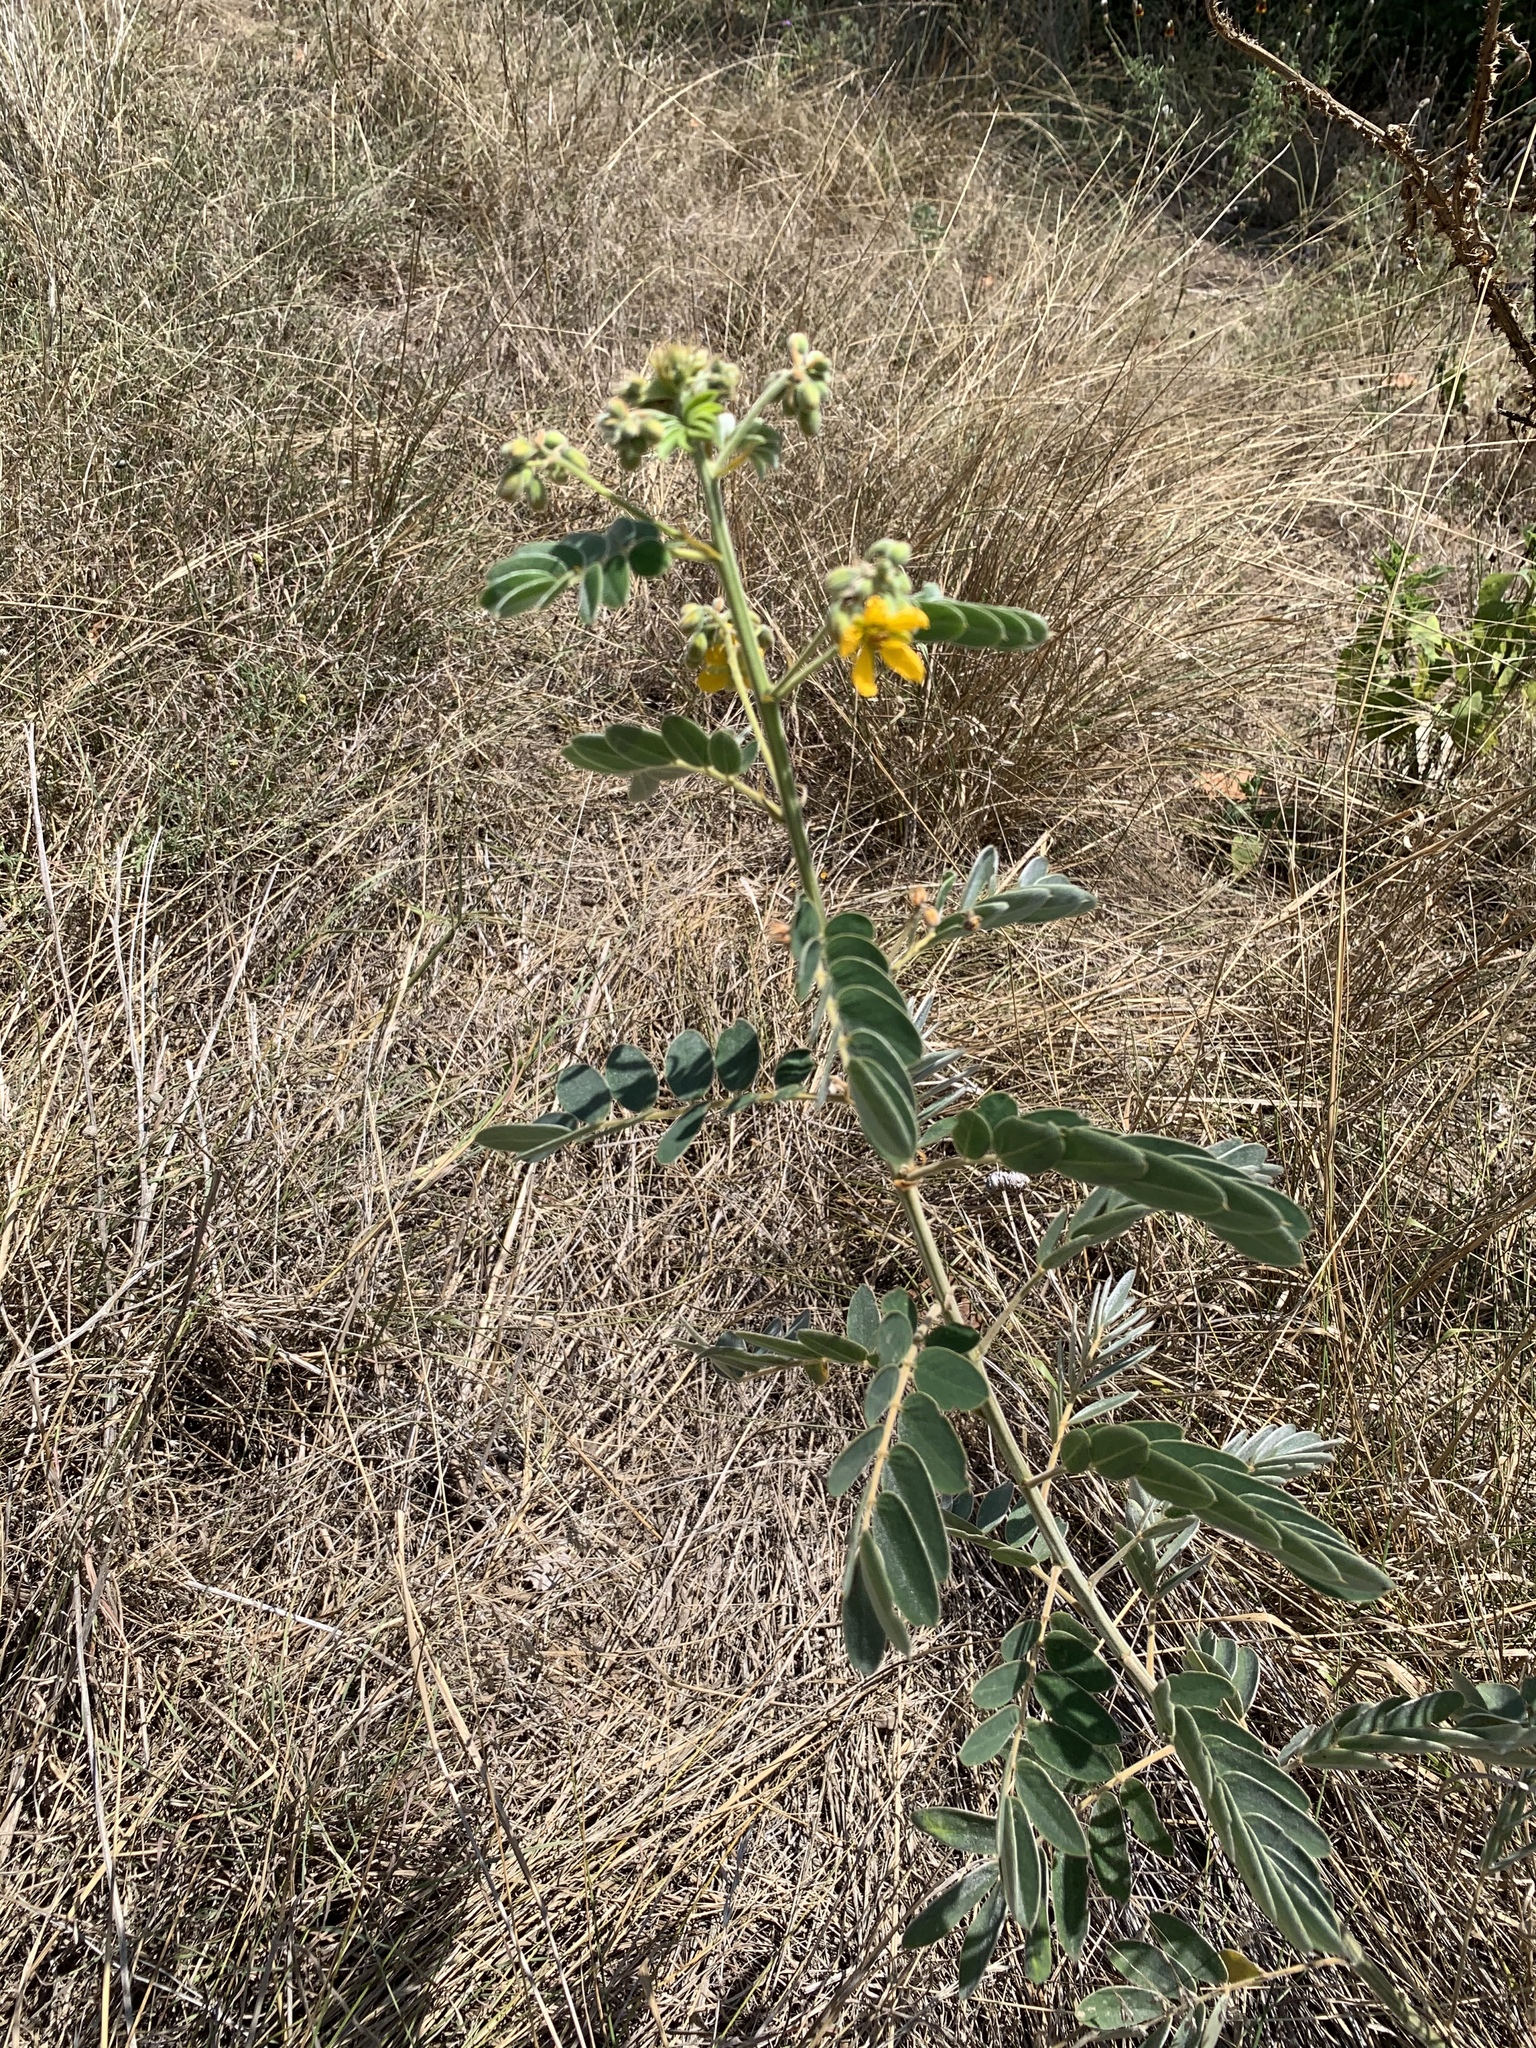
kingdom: Plantae
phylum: Tracheophyta
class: Magnoliopsida
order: Fabales
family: Fabaceae
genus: Senna
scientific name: Senna lindheimeriana
